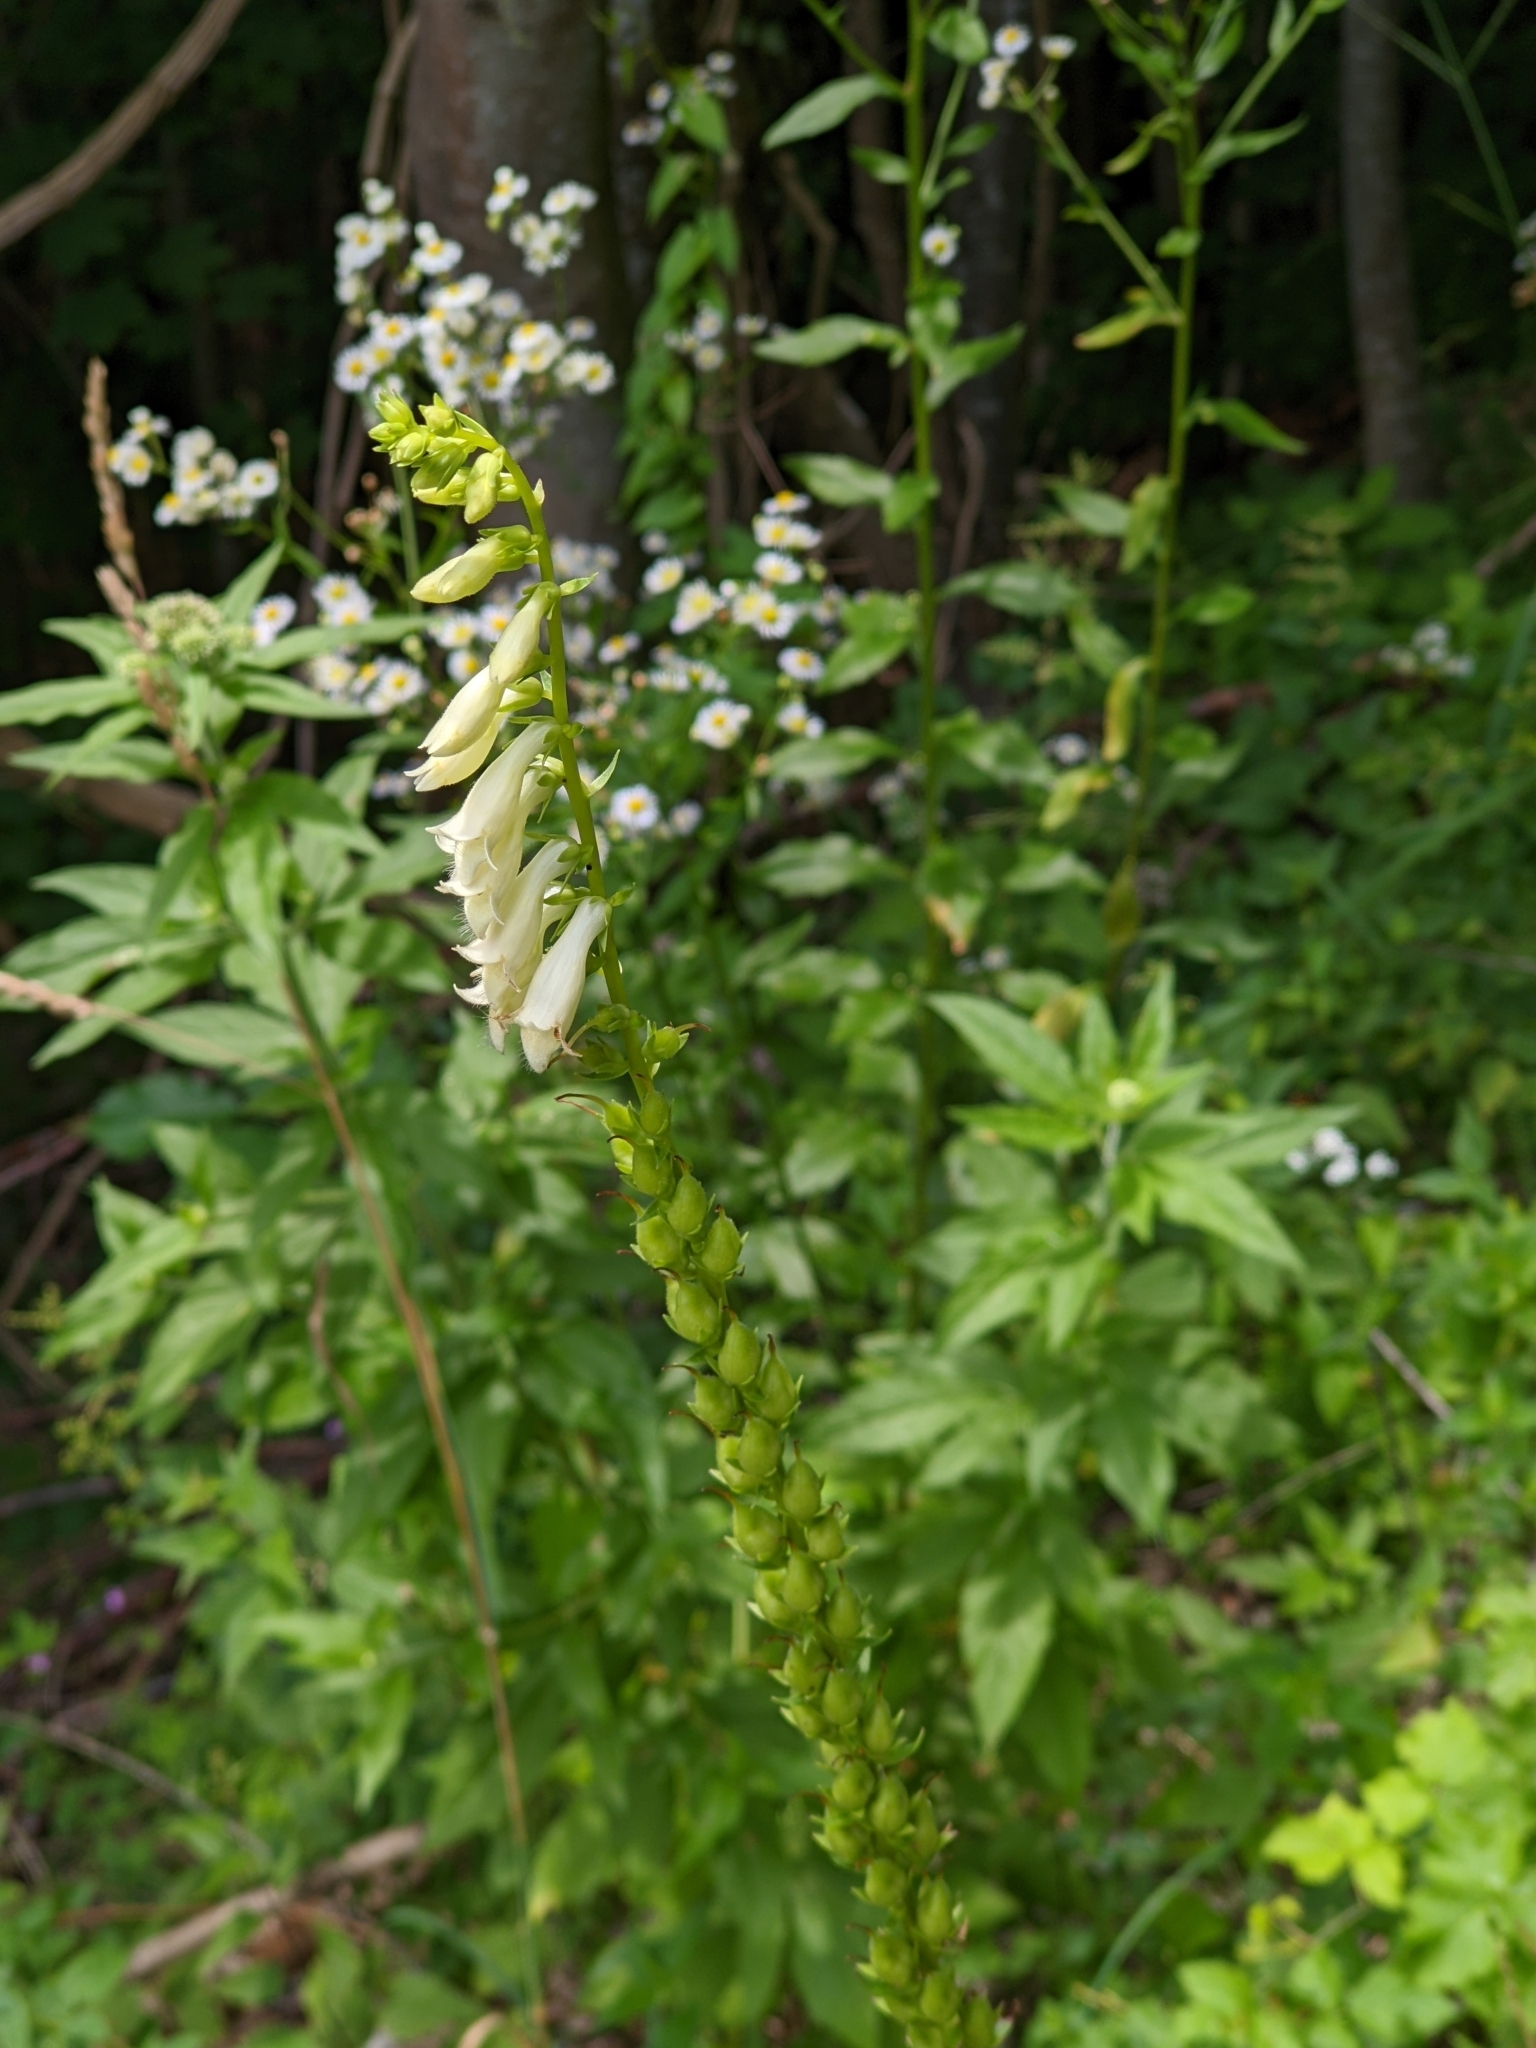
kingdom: Plantae
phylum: Tracheophyta
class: Magnoliopsida
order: Lamiales
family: Plantaginaceae
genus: Digitalis
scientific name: Digitalis lutea
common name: Straw foxglove
